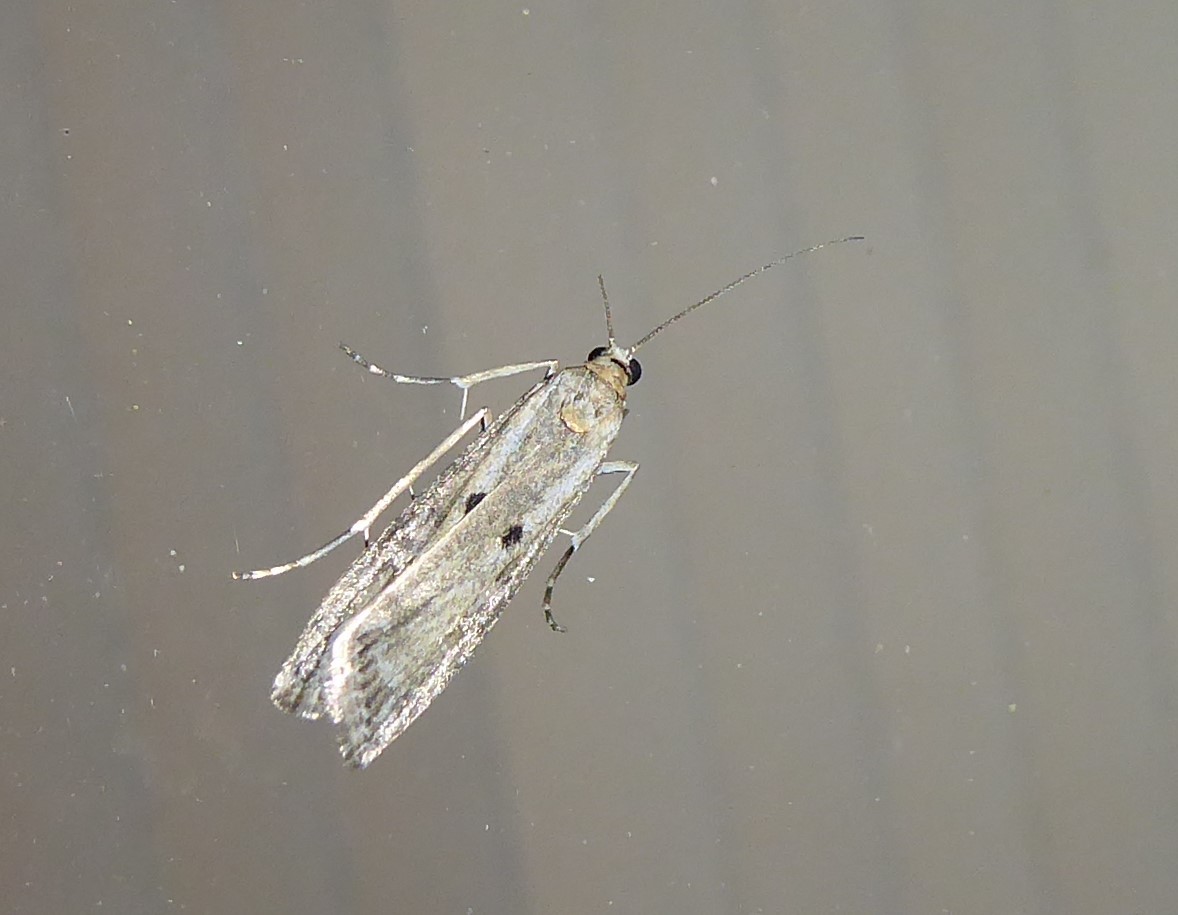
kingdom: Animalia
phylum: Arthropoda
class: Insecta
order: Lepidoptera
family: Crambidae
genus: Eudonia
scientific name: Eudonia leptalea
